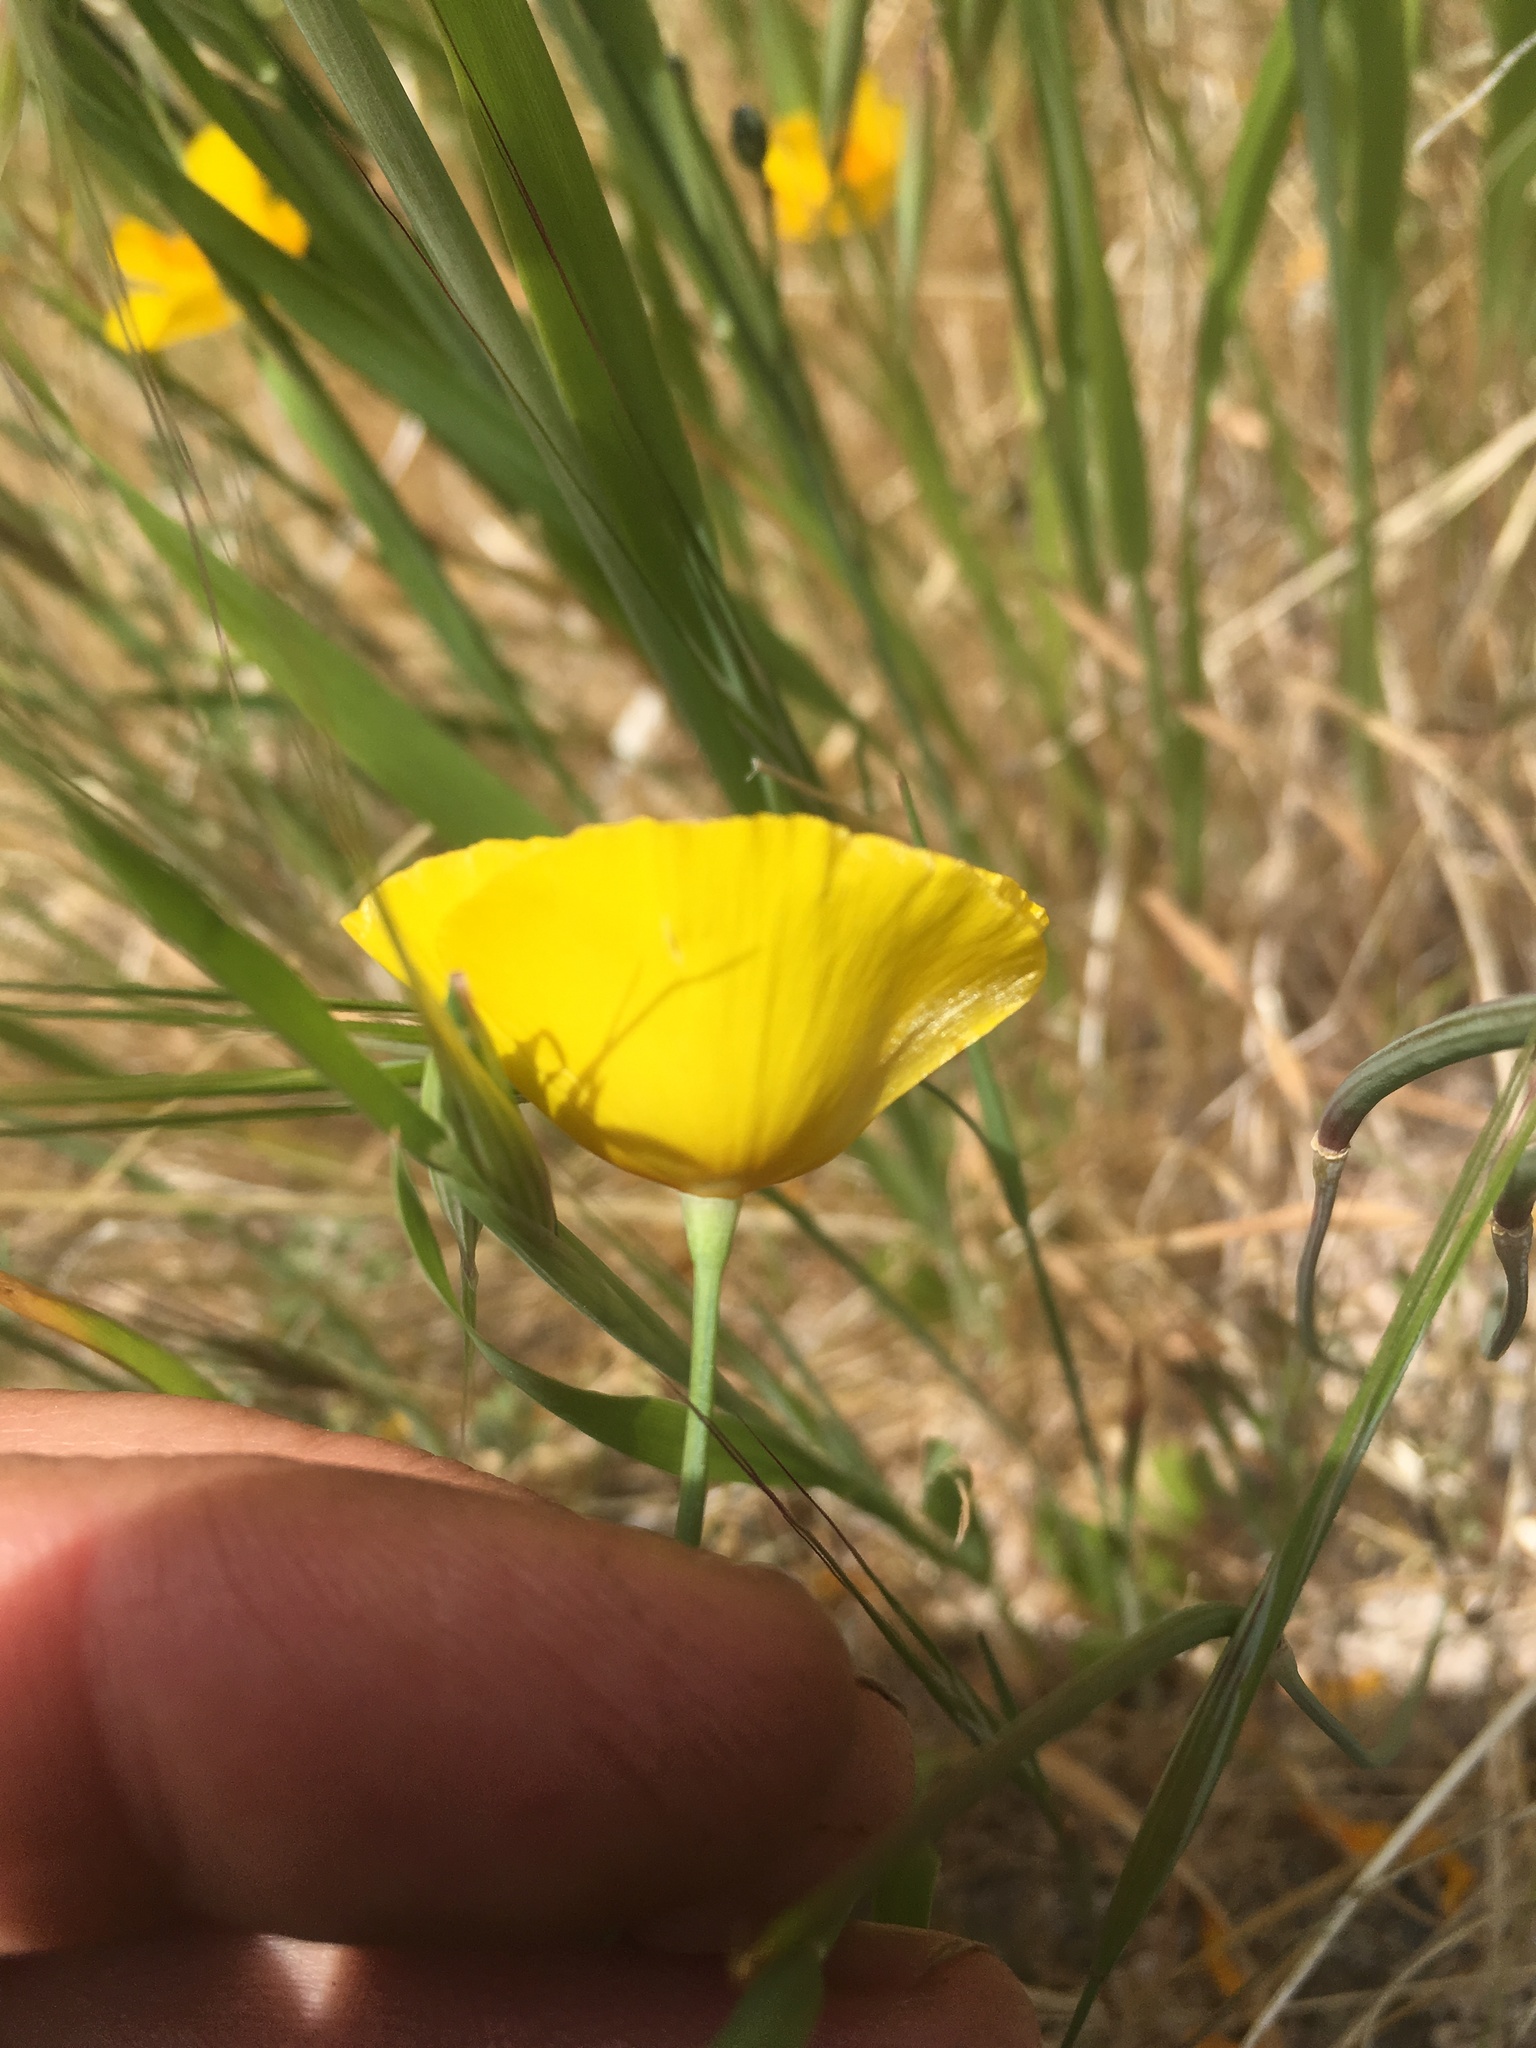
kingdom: Plantae
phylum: Tracheophyta
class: Magnoliopsida
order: Ranunculales
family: Papaveraceae
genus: Eschscholzia
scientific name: Eschscholzia caespitosa
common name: Tufted california-poppy
